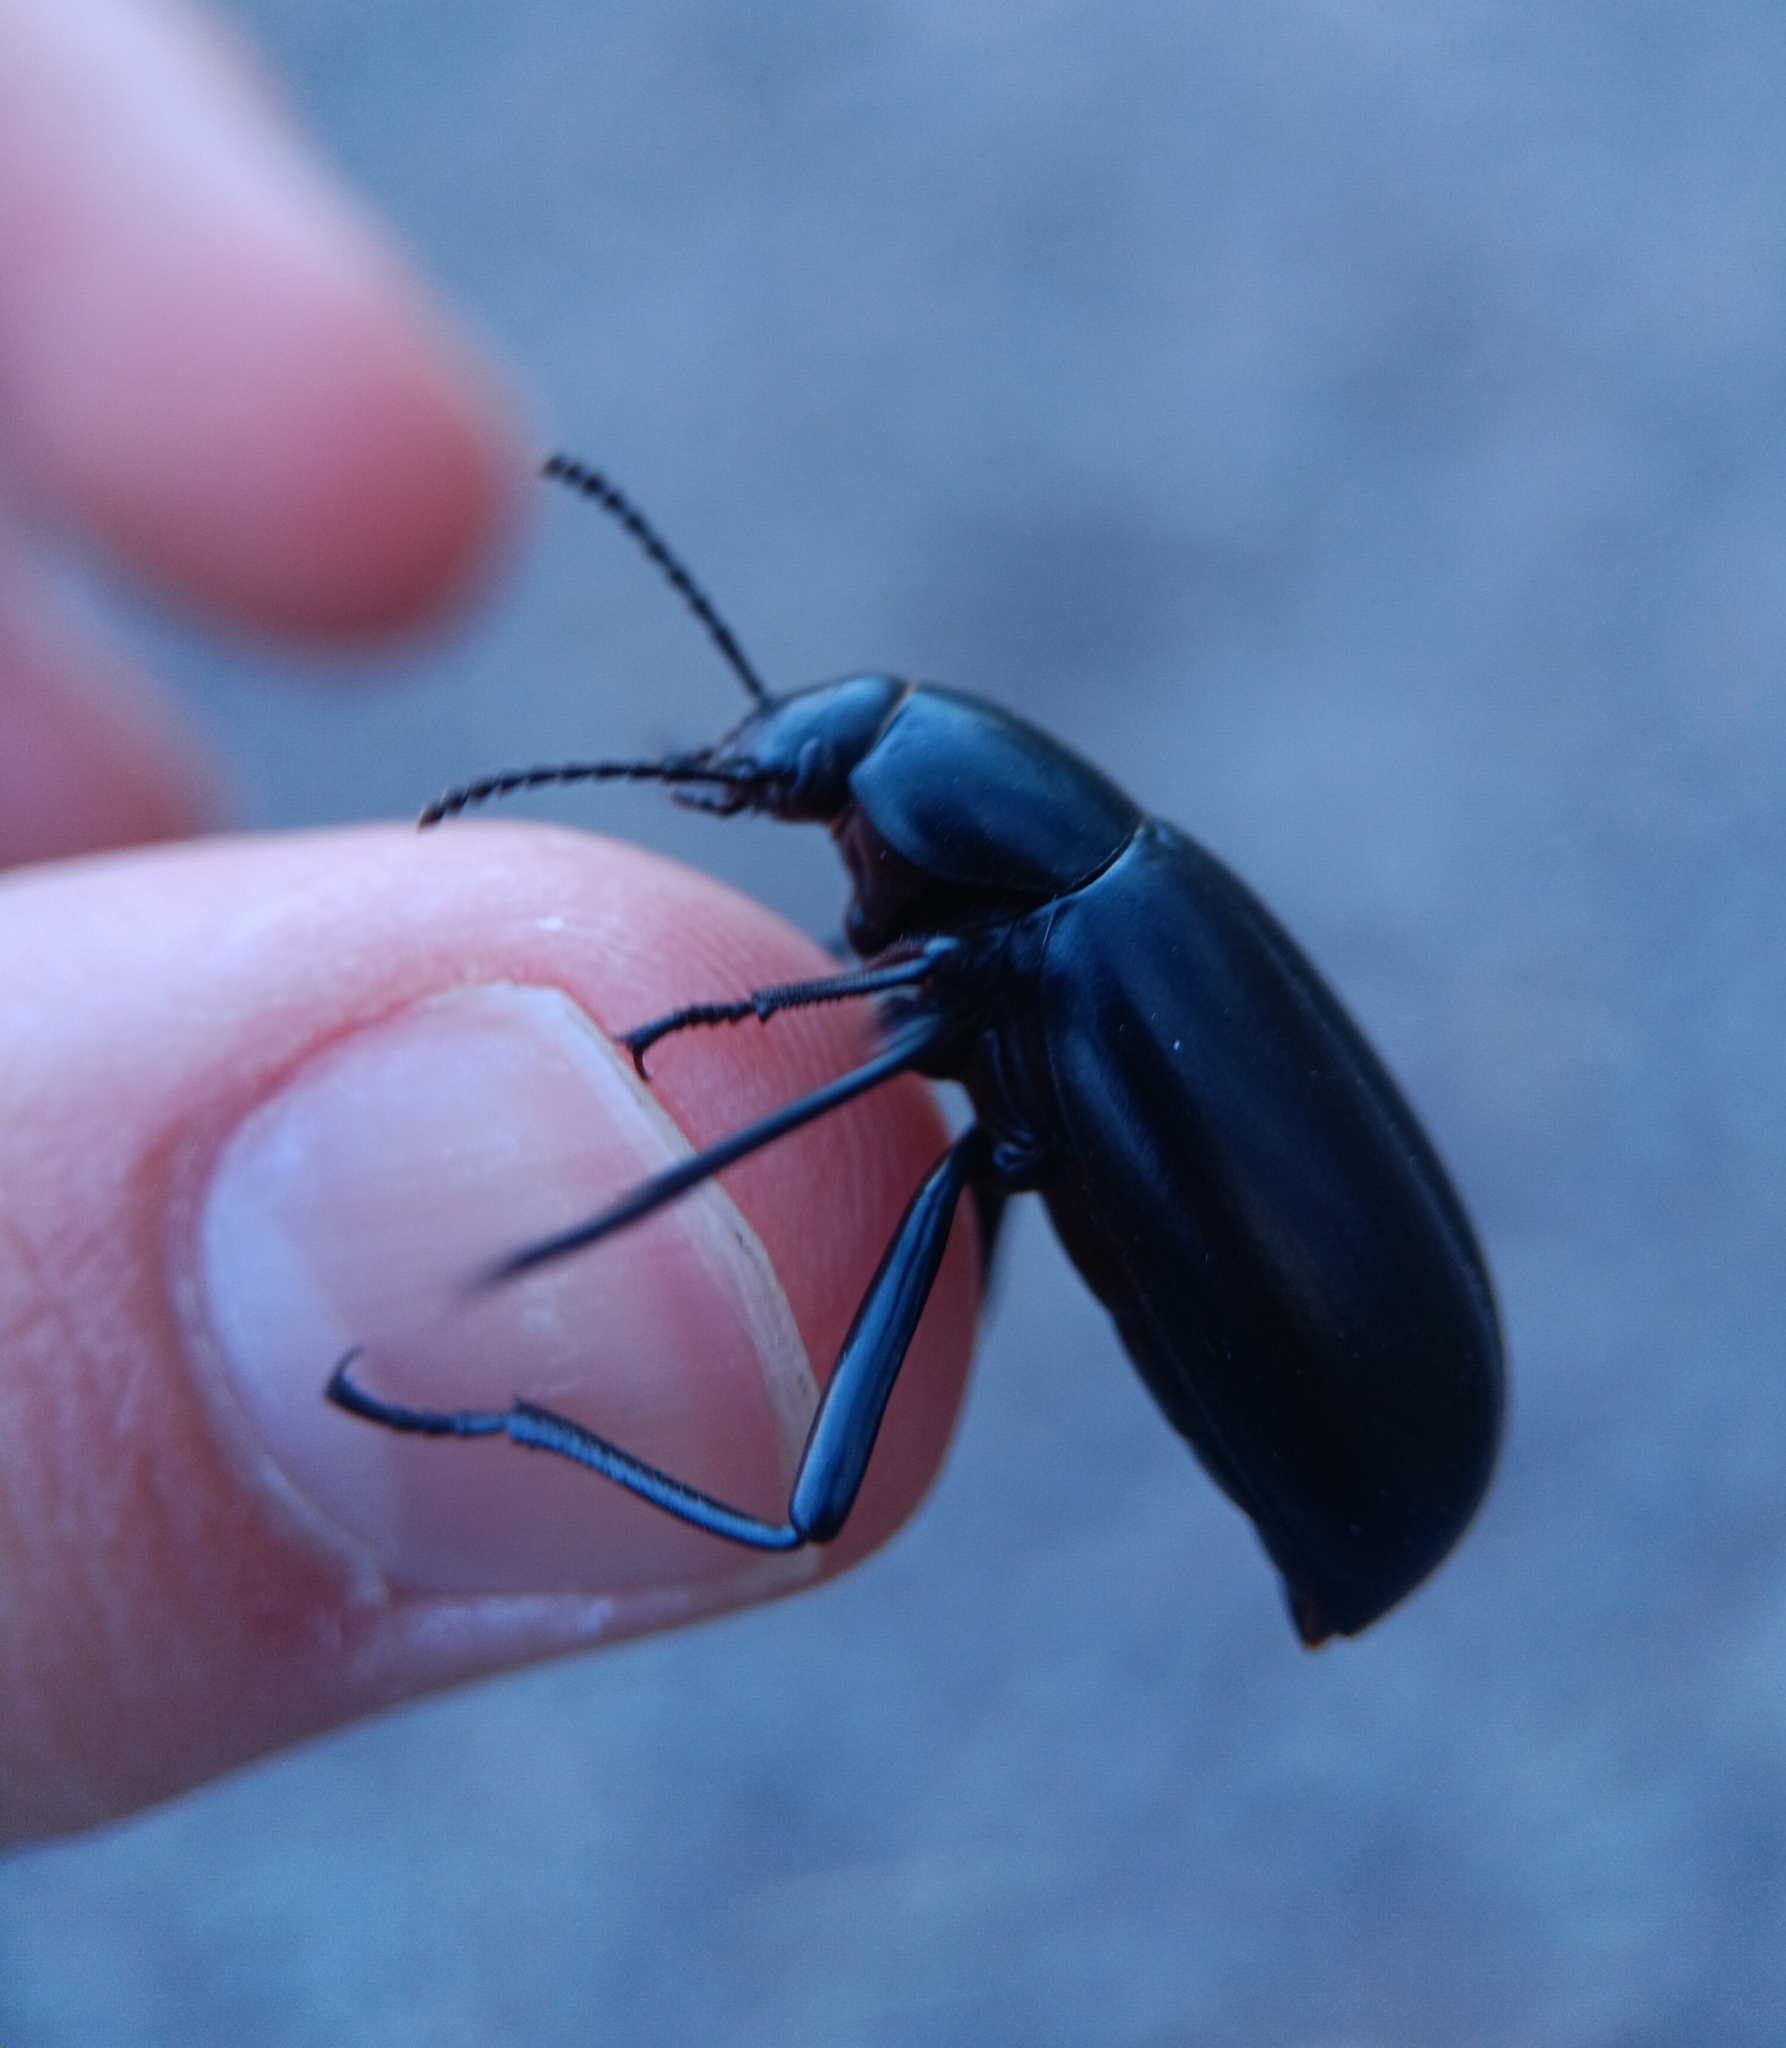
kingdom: Animalia
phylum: Arthropoda
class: Insecta
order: Coleoptera
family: Tenebrionidae
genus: Eleodes
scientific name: Eleodes longicollis
